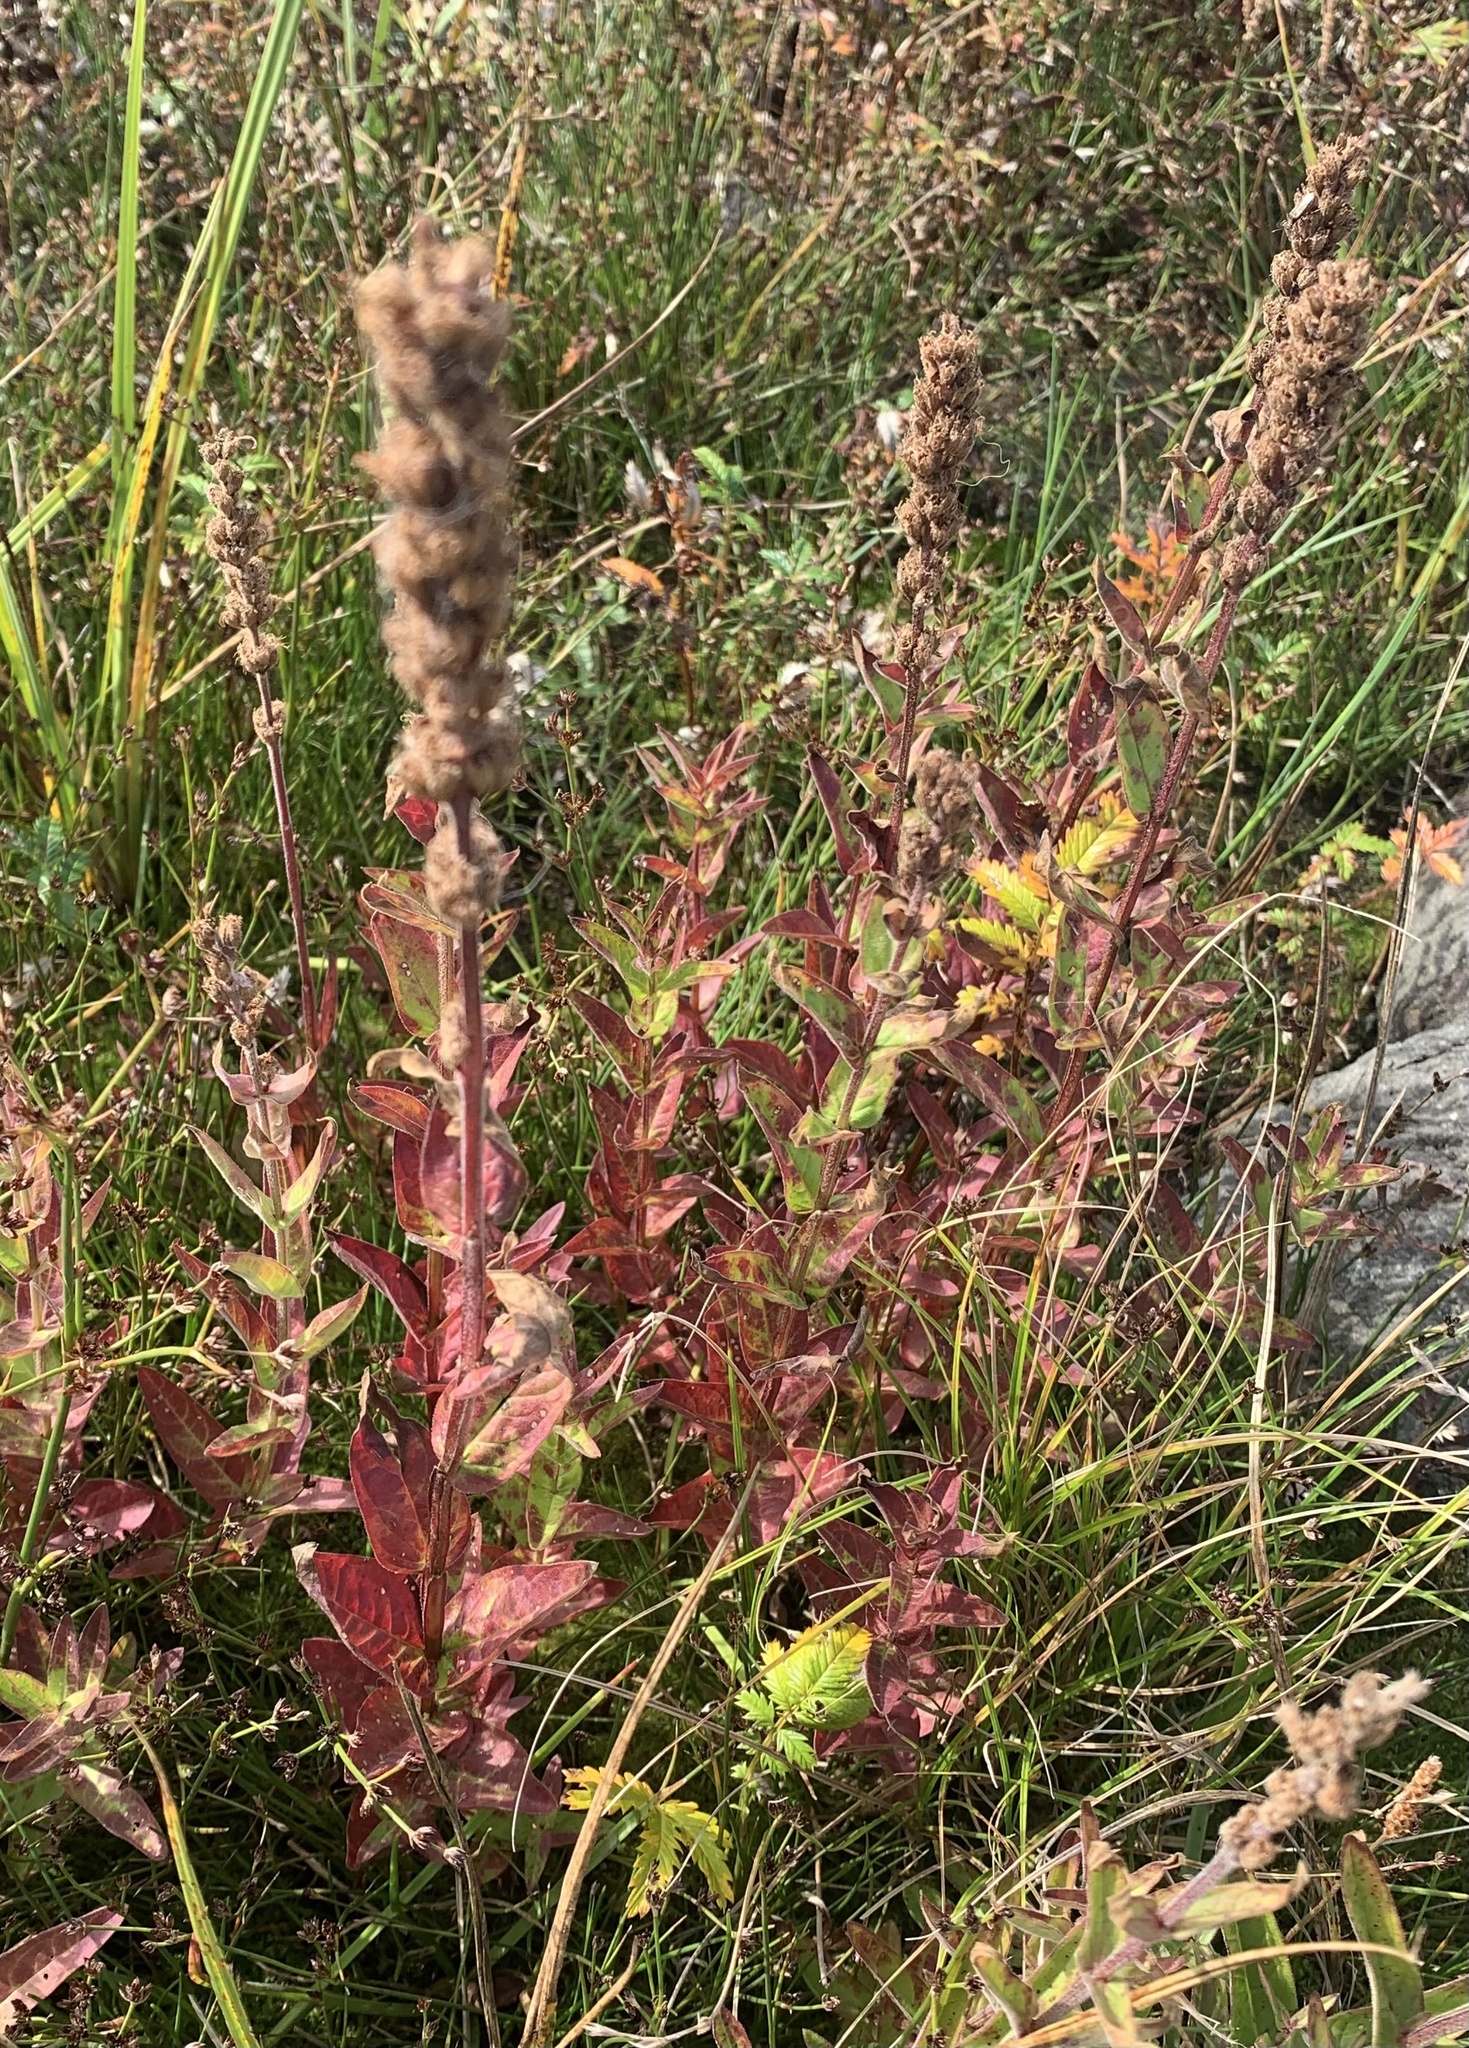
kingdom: Plantae
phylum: Tracheophyta
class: Magnoliopsida
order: Myrtales
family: Lythraceae
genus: Lythrum
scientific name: Lythrum salicaria
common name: Purple loosestrife
